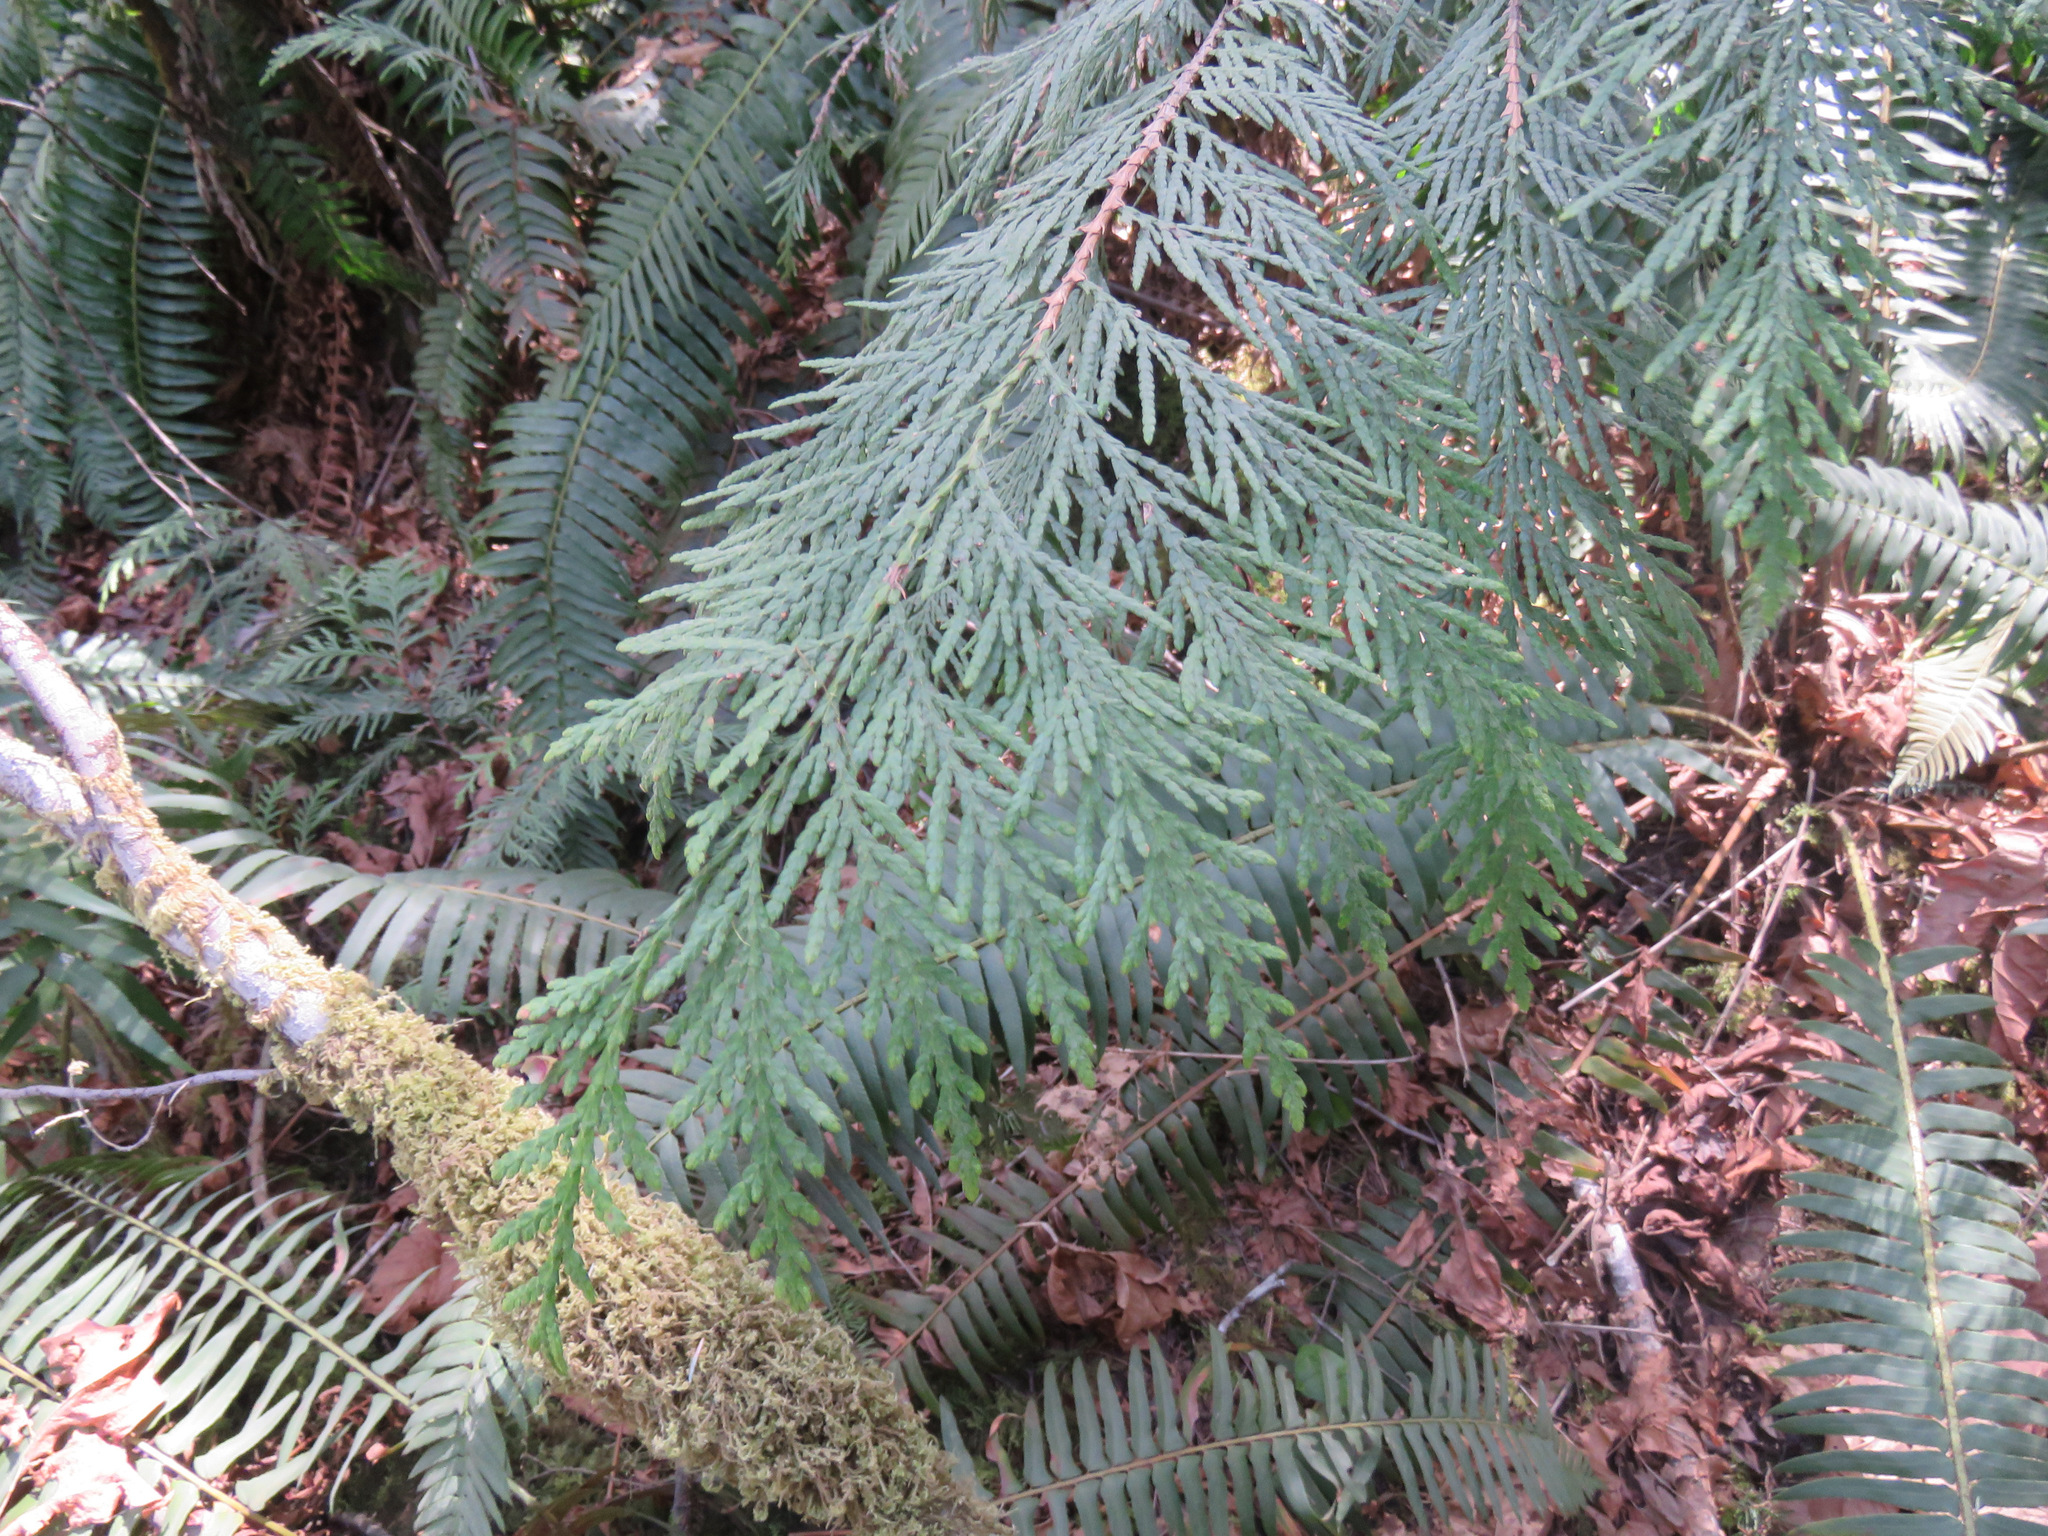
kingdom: Plantae
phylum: Tracheophyta
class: Pinopsida
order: Pinales
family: Cupressaceae
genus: Thuja
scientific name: Thuja plicata
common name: Western red-cedar
